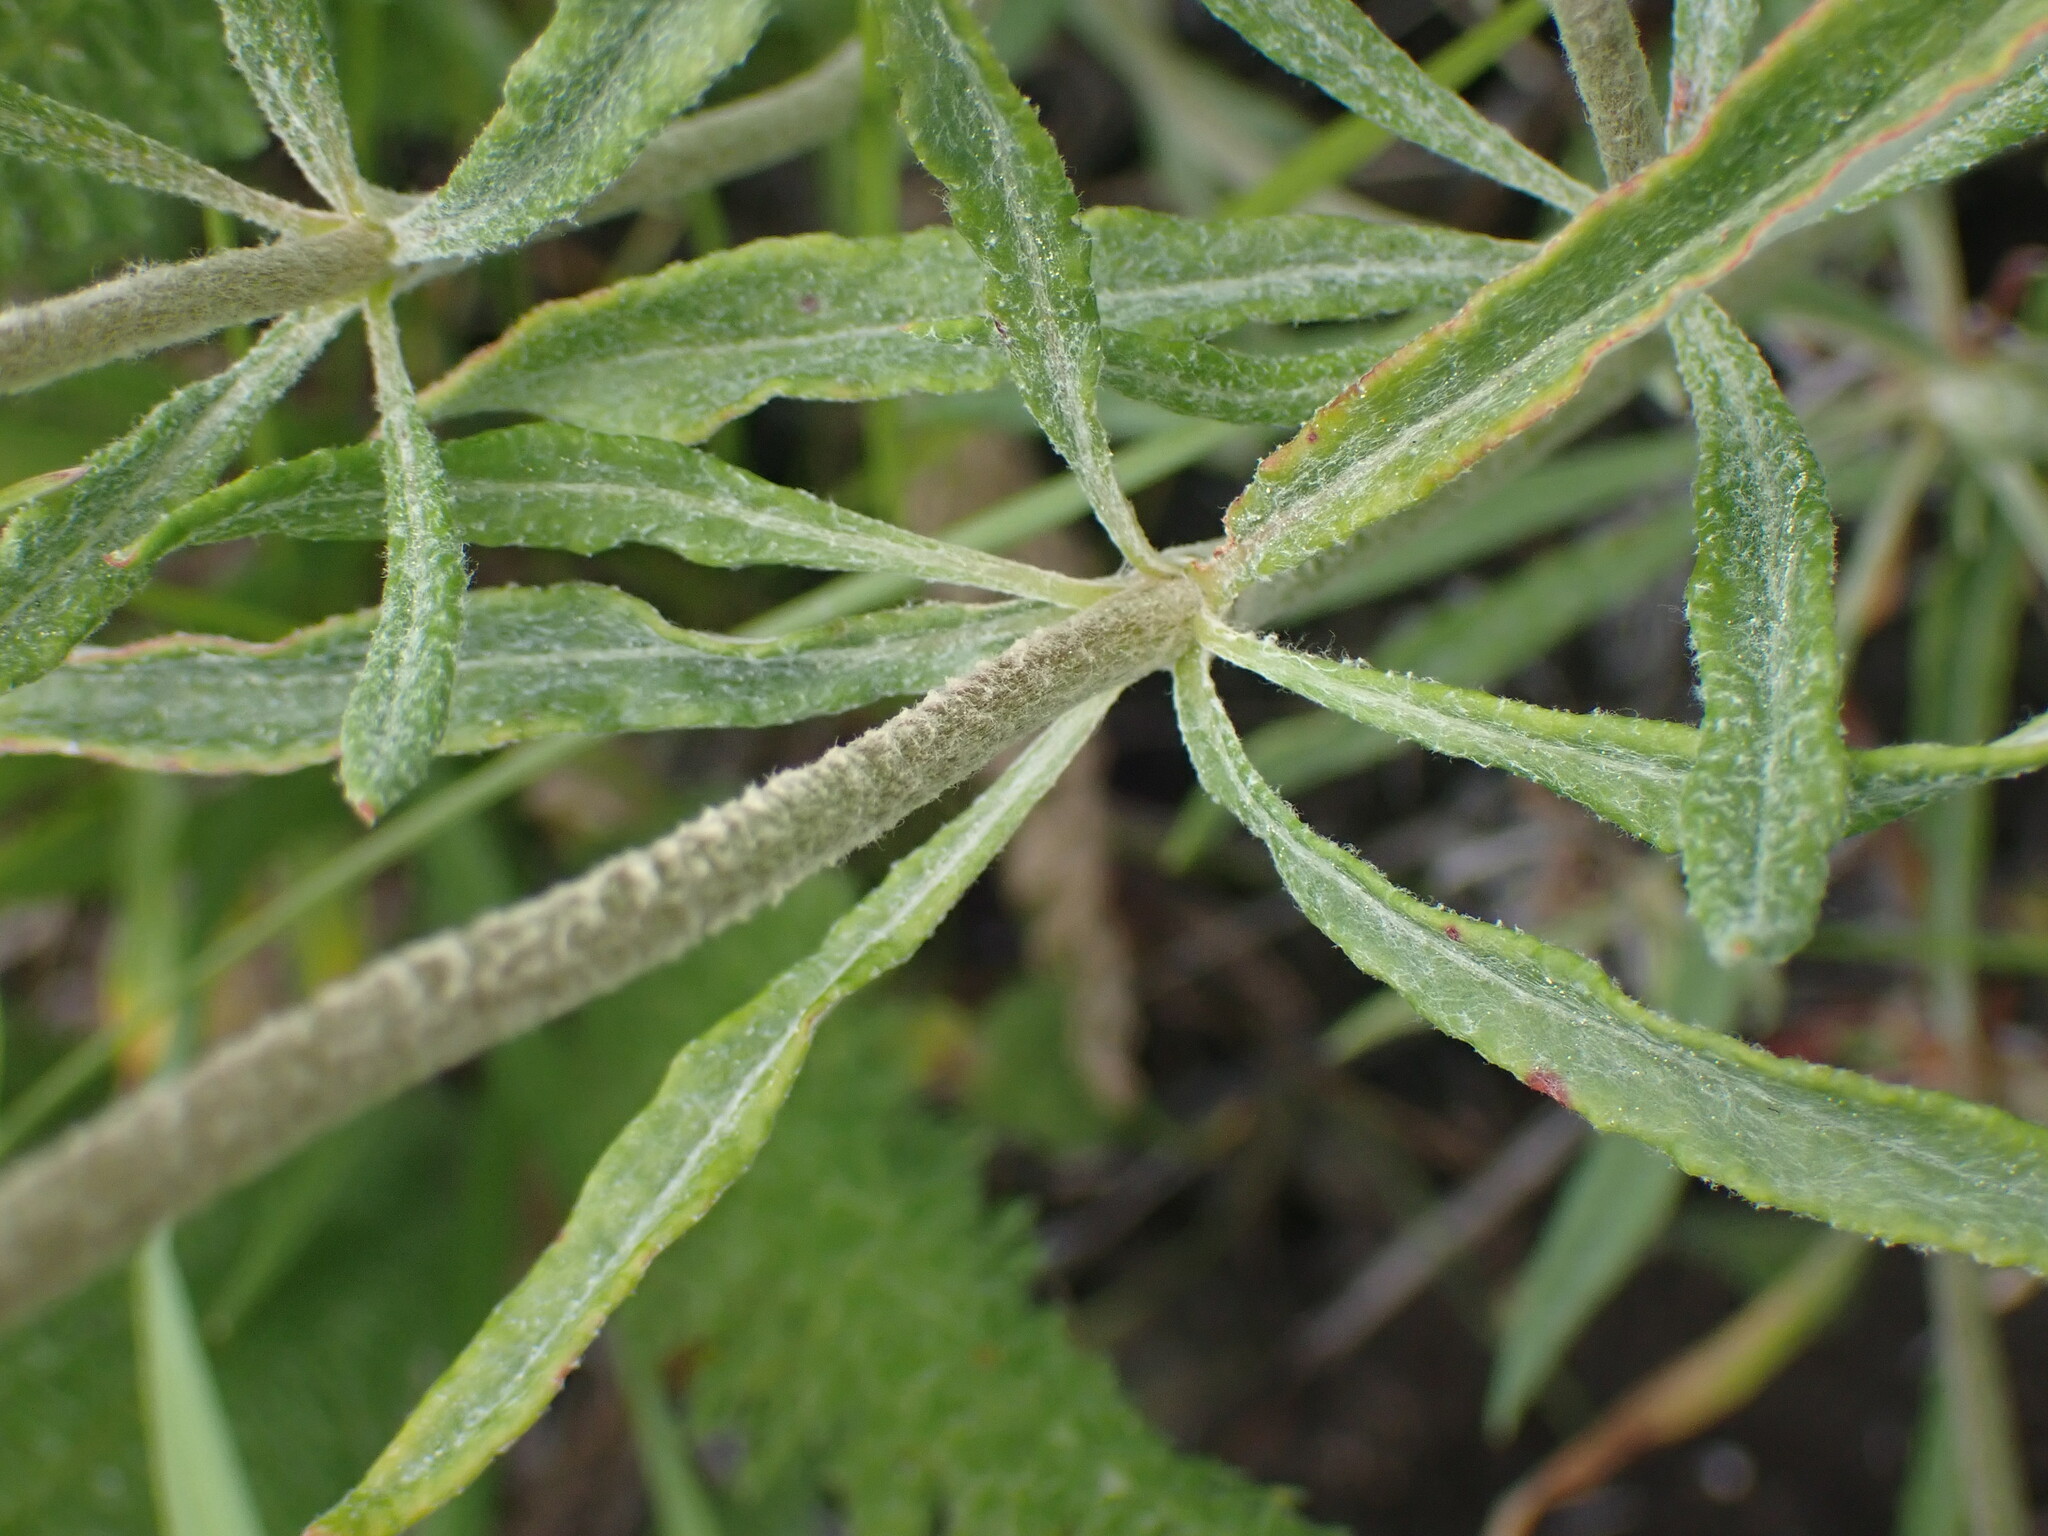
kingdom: Plantae
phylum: Tracheophyta
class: Magnoliopsida
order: Caryophyllales
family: Polygonaceae
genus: Eriogonum
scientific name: Eriogonum heracleoides
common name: Wyeth's buckwheat
